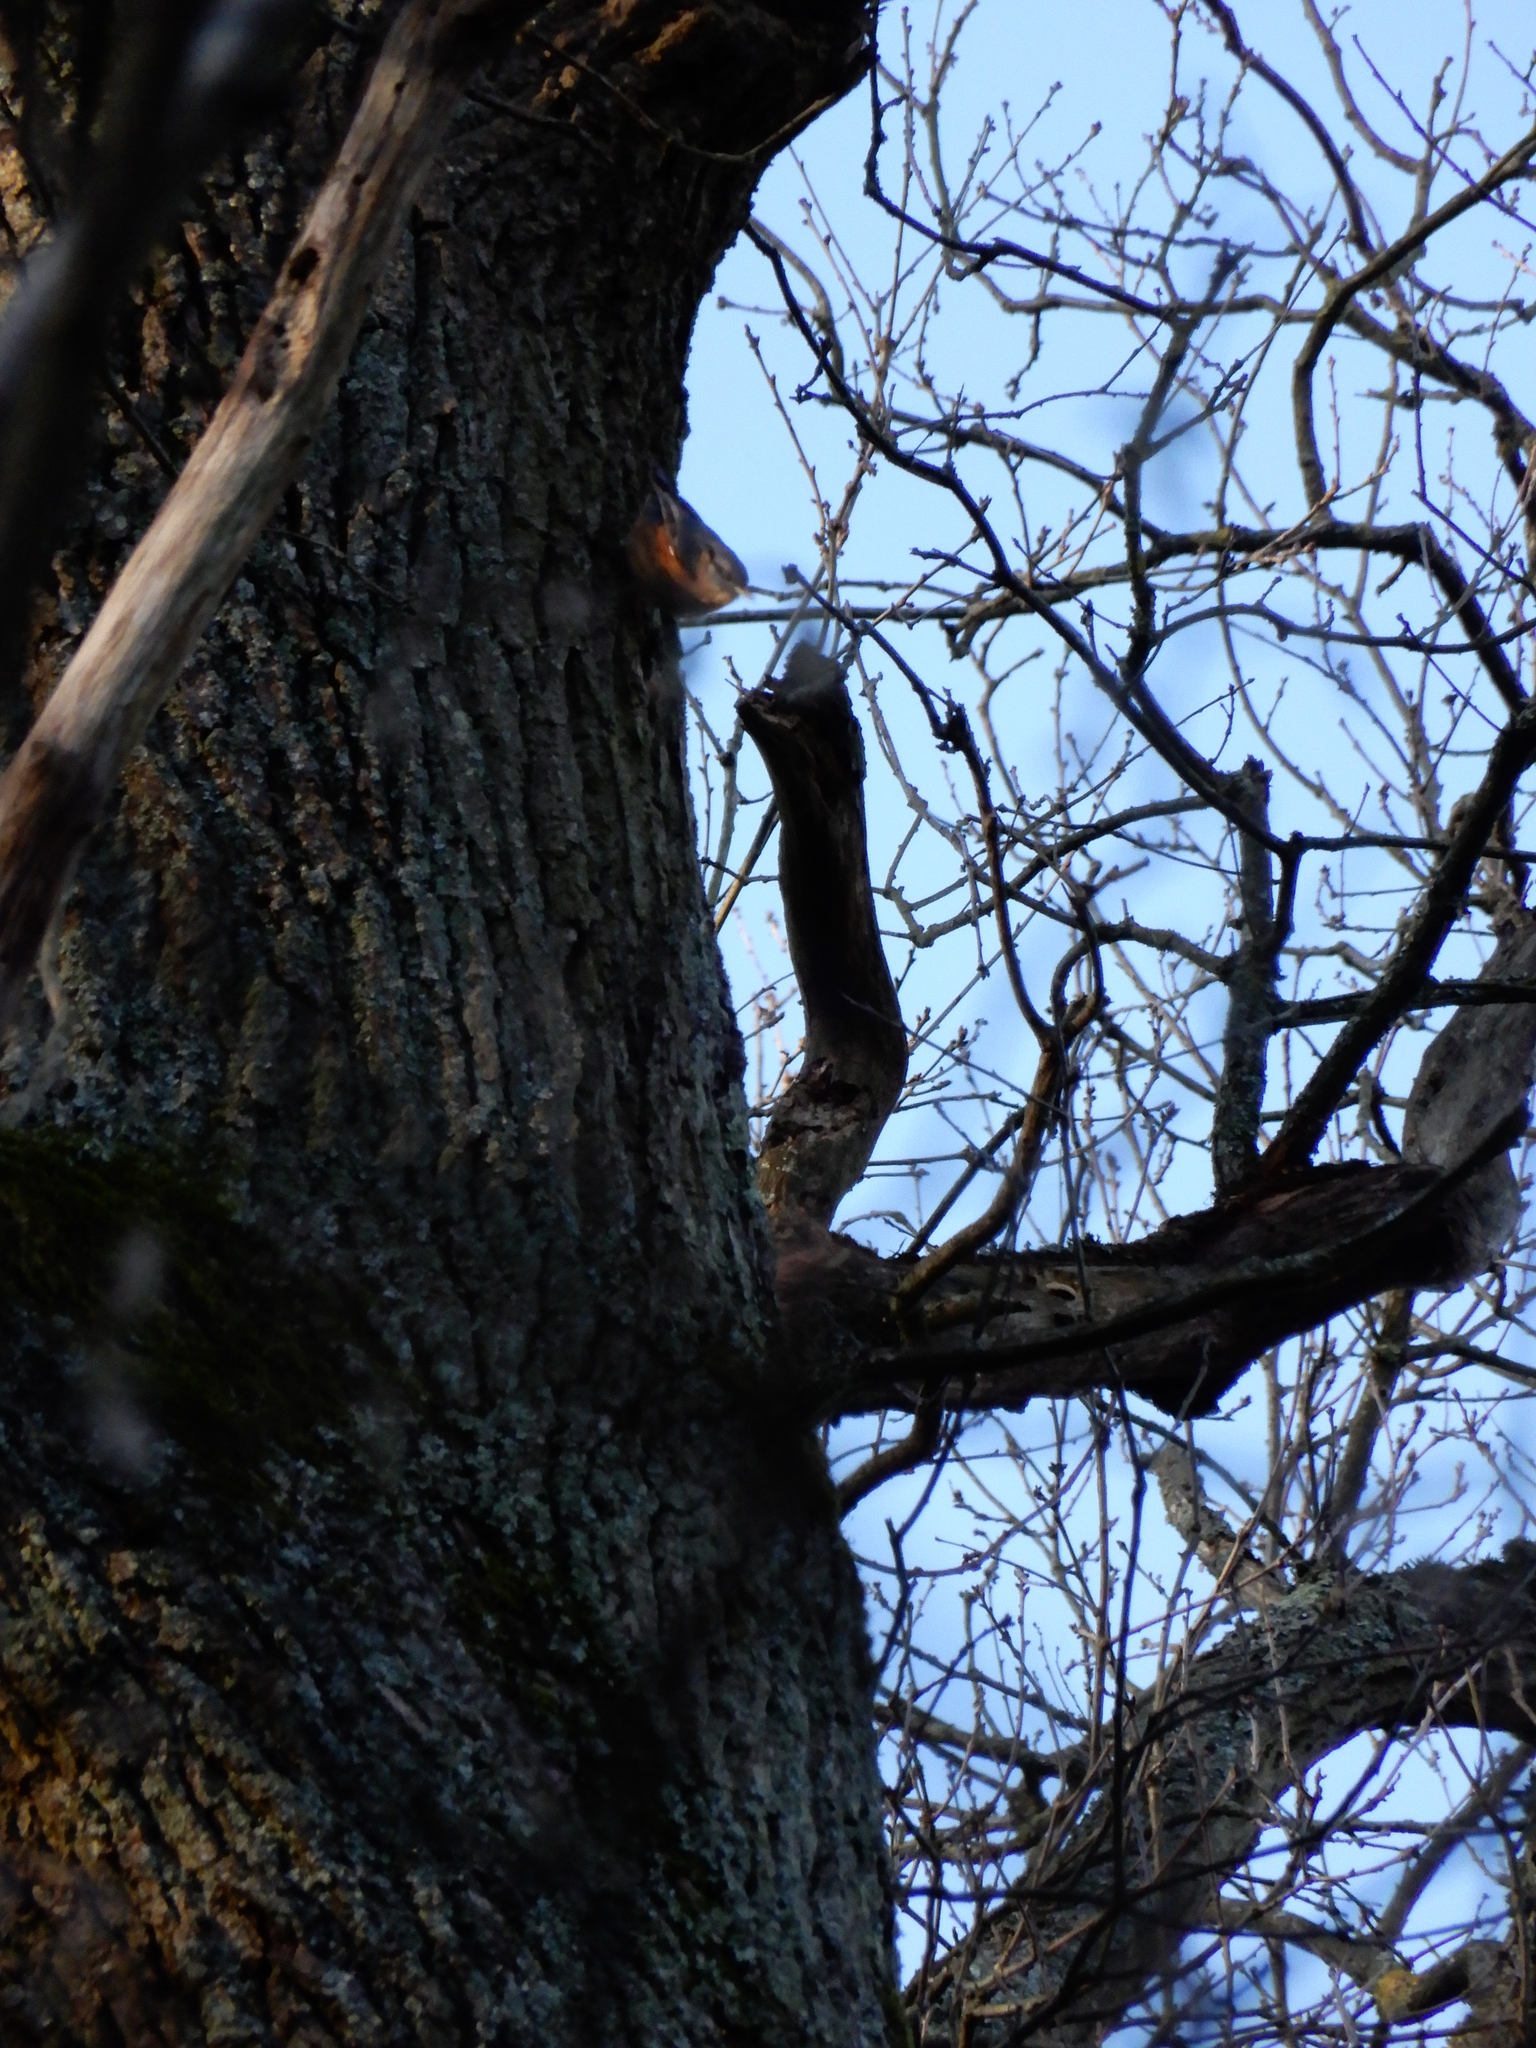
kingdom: Animalia
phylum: Chordata
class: Aves
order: Passeriformes
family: Sittidae
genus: Sitta
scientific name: Sitta europaea
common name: Eurasian nuthatch
